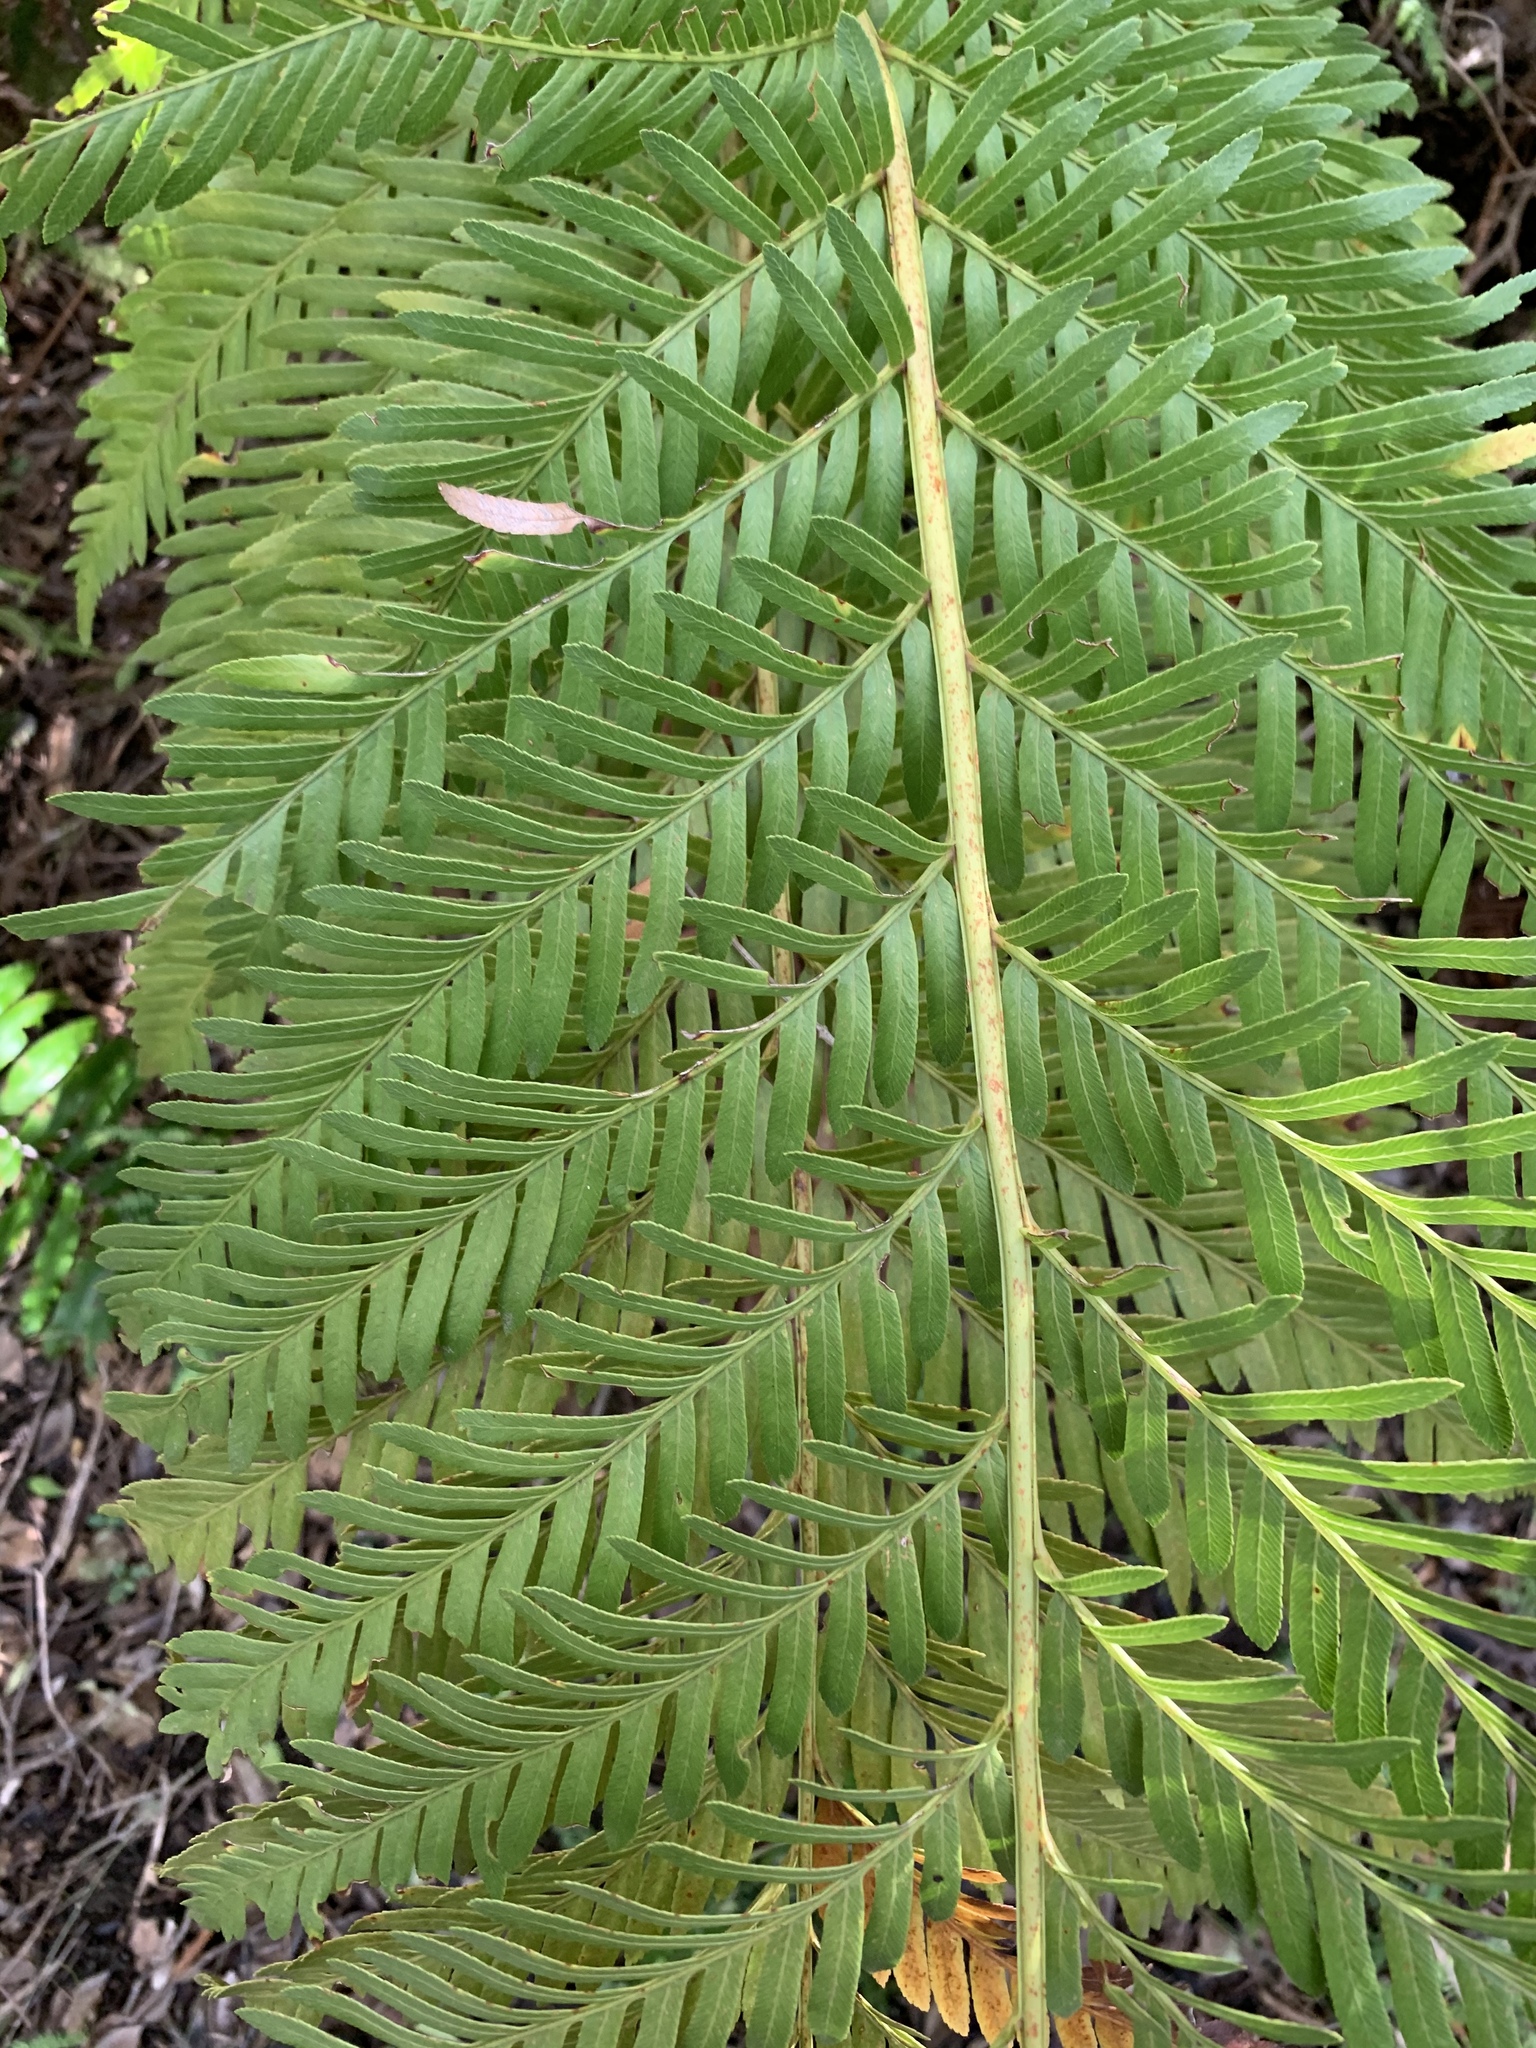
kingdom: Plantae
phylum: Tracheophyta
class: Polypodiopsida
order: Osmundales
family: Osmundaceae
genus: Todea
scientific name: Todea barbara
